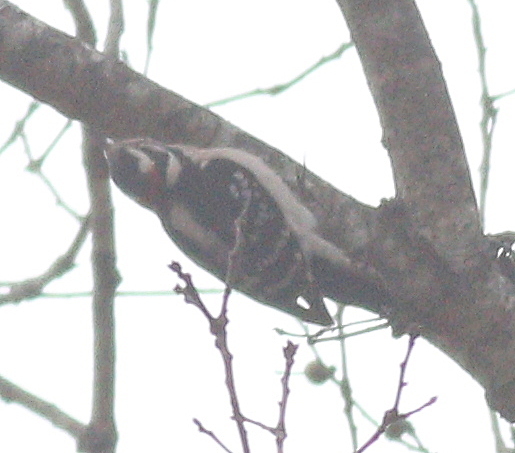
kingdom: Animalia
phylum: Chordata
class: Aves
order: Piciformes
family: Picidae
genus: Dryobates
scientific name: Dryobates pubescens
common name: Downy woodpecker
